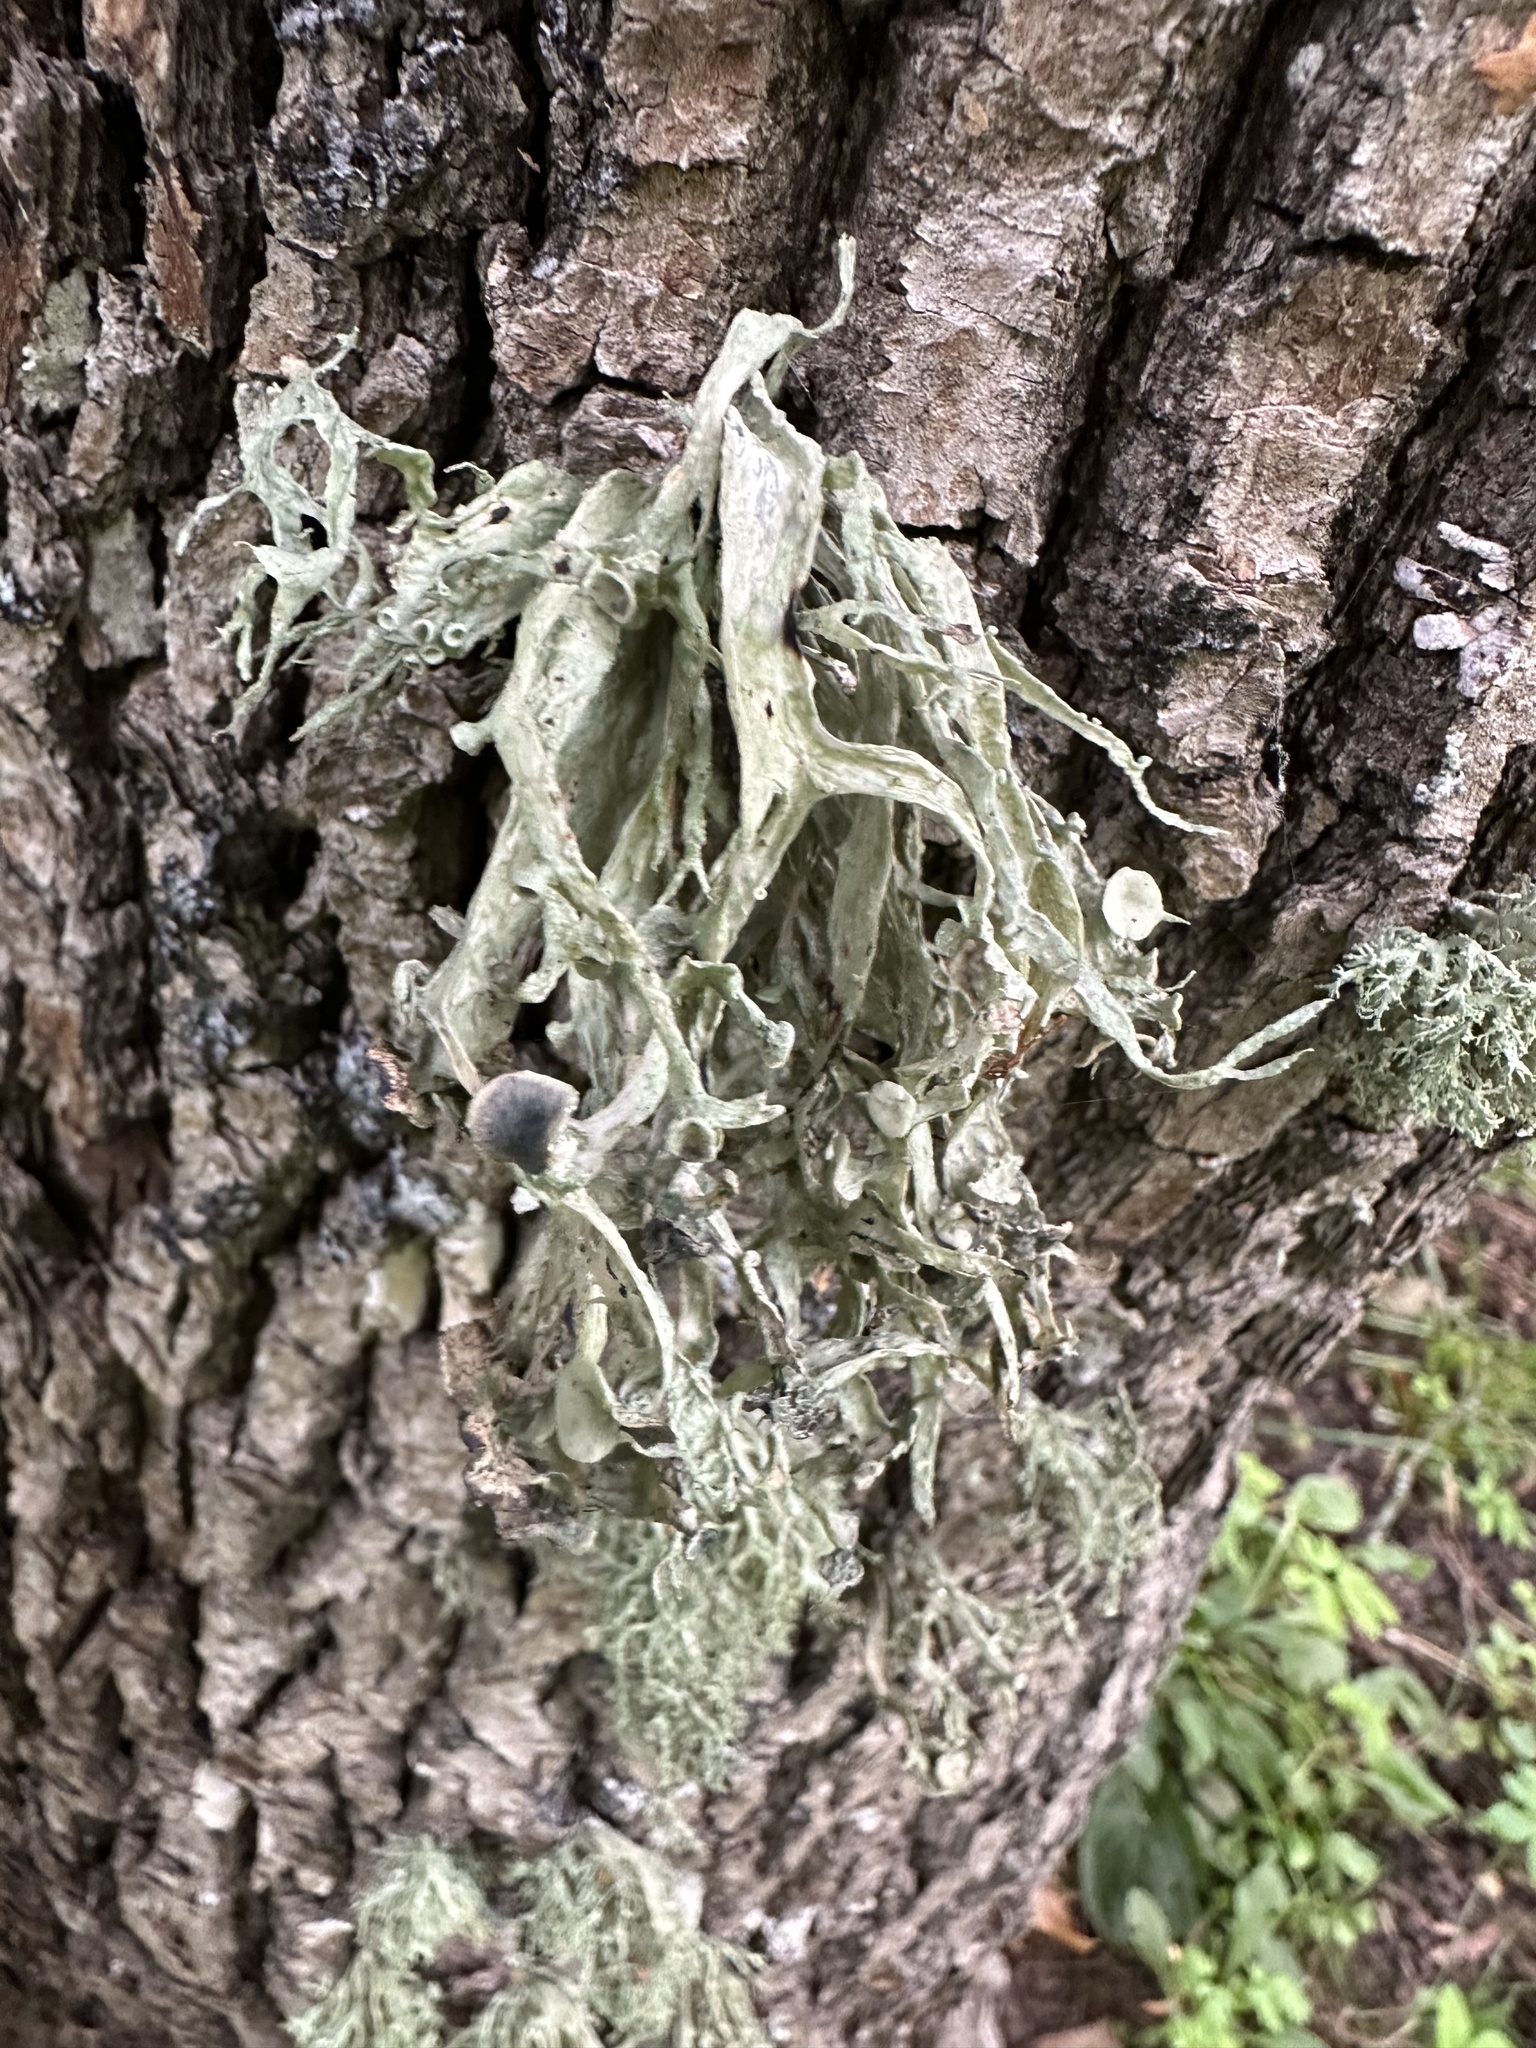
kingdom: Fungi
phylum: Ascomycota
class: Lecanoromycetes
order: Lecanorales
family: Ramalinaceae
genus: Ramalina
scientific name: Ramalina fraxinea
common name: Cartilage lichen
